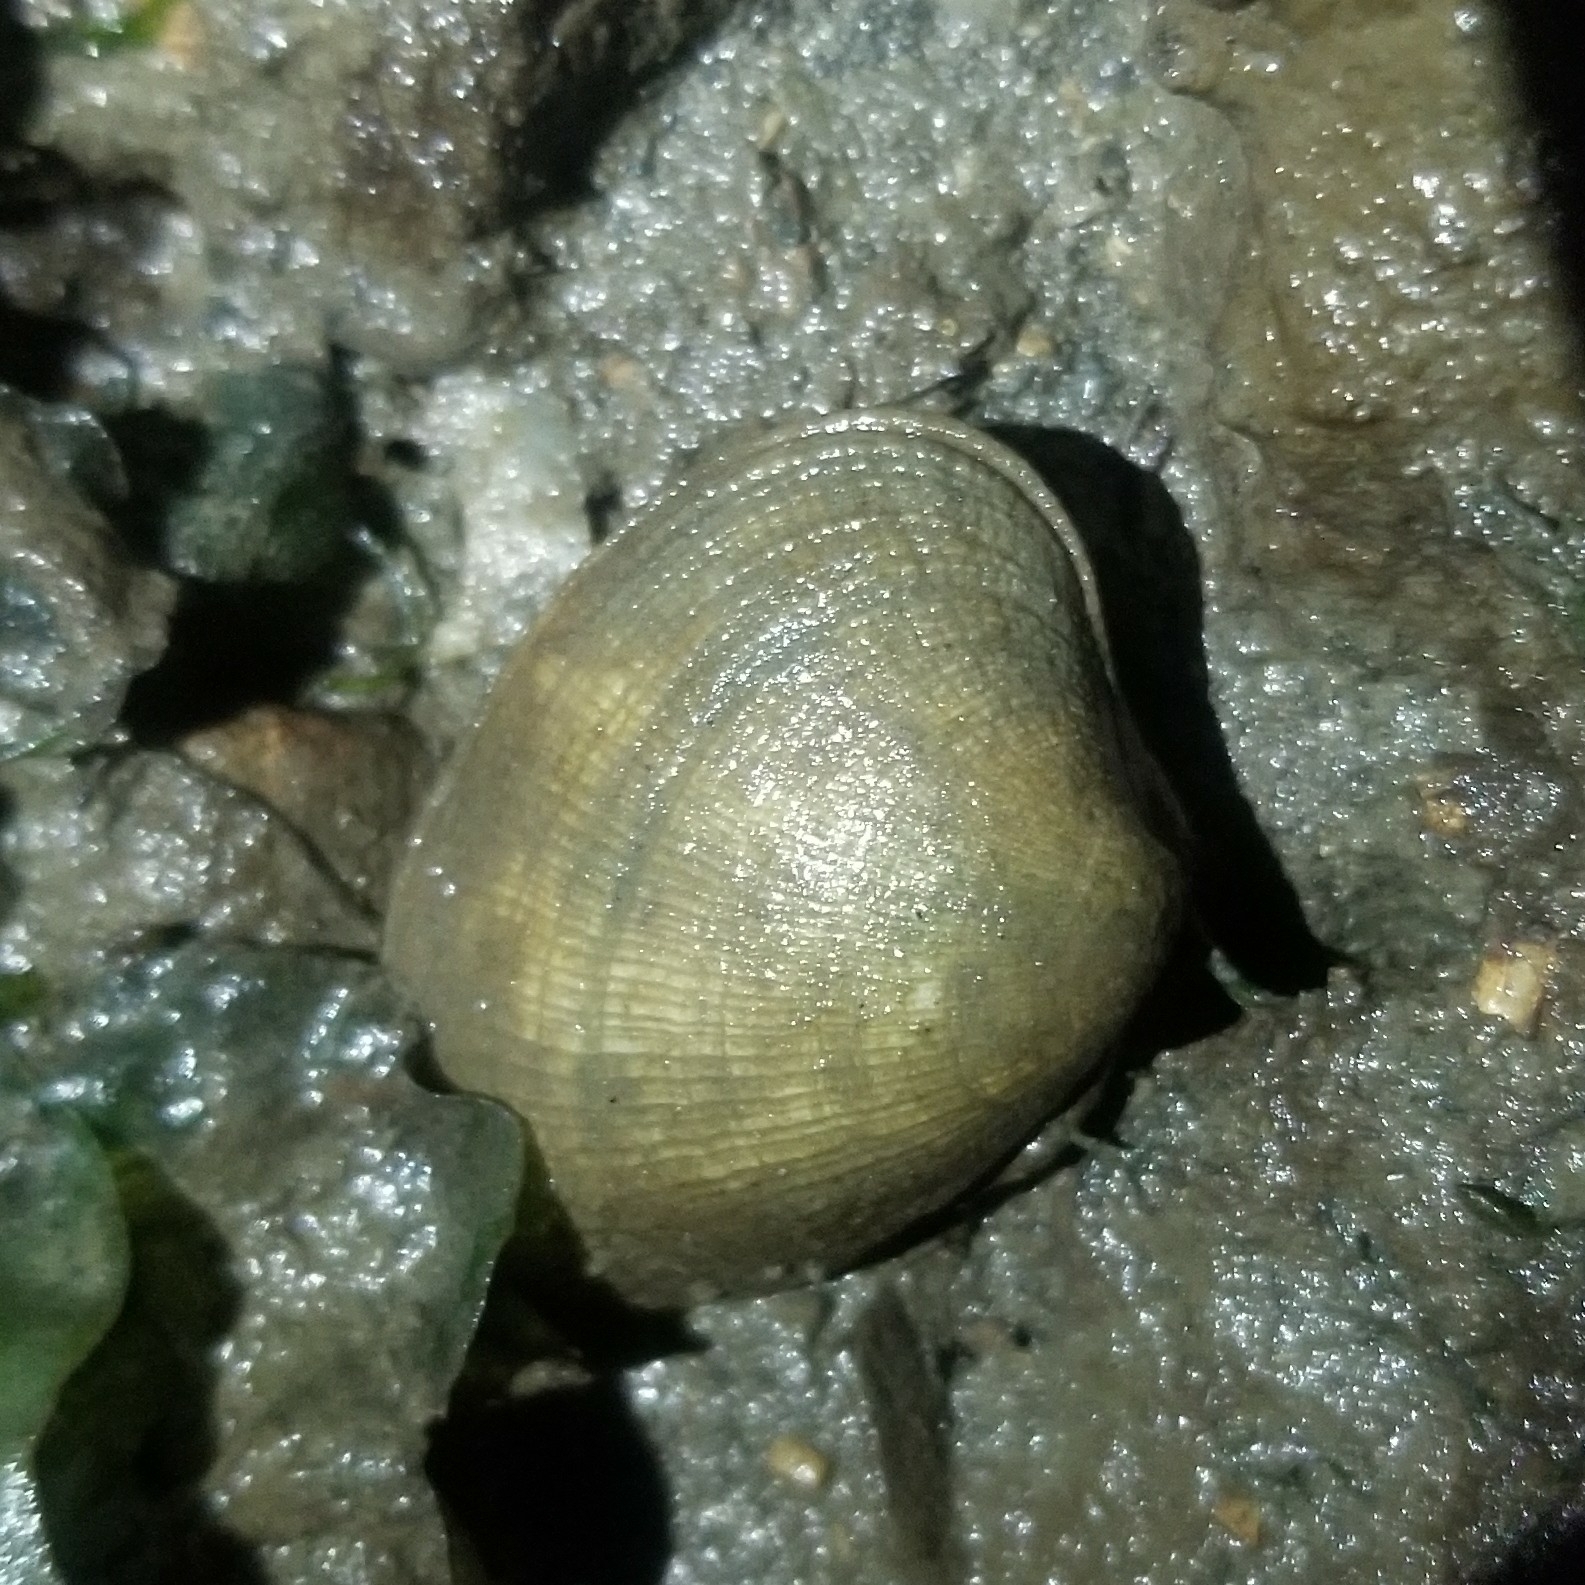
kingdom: Animalia
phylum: Mollusca
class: Bivalvia
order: Venerida
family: Veneridae
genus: Ruditapes
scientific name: Ruditapes philippinarum
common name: Manila clam
